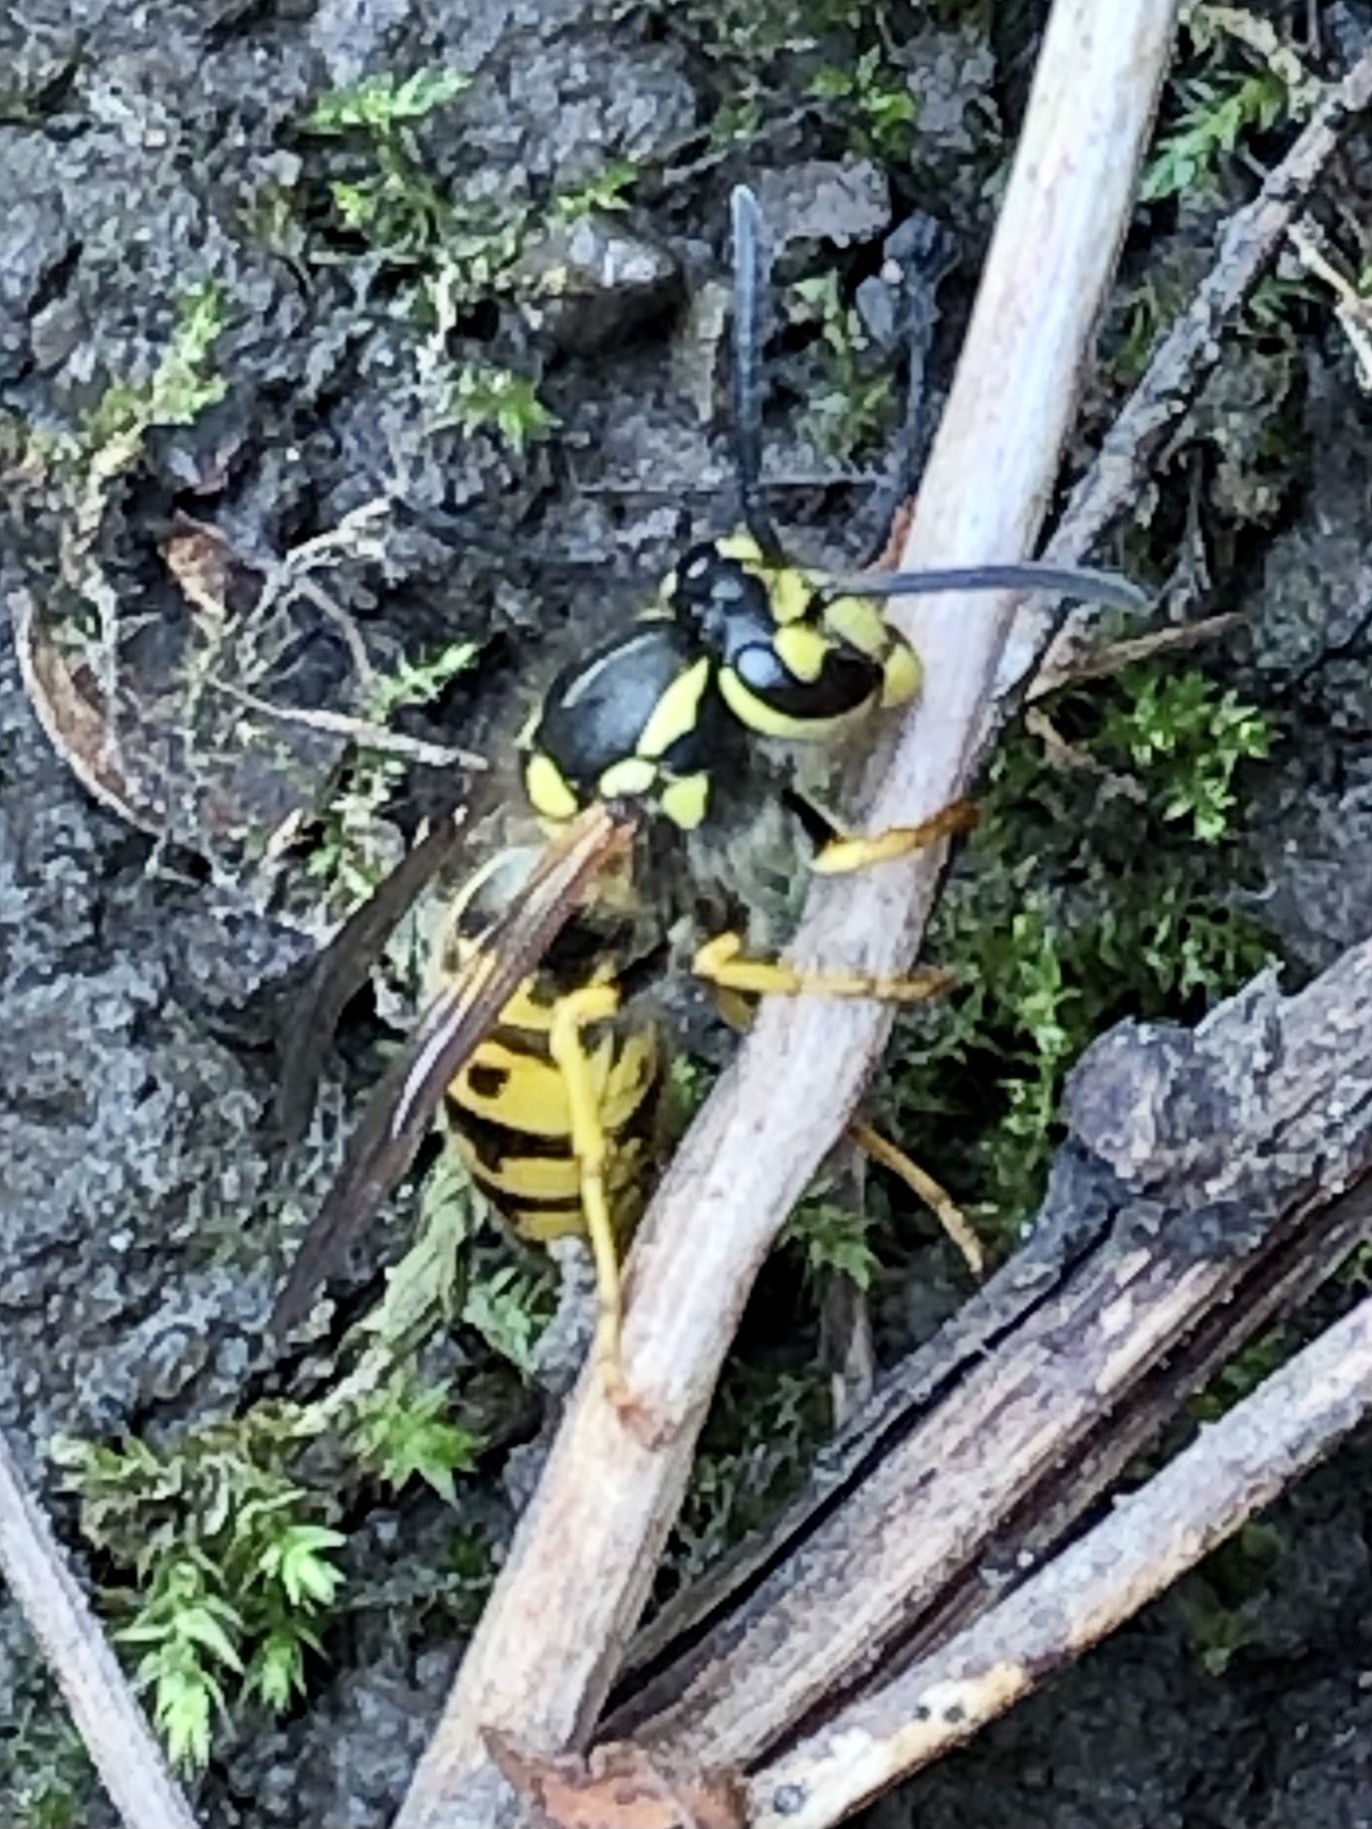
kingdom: Animalia
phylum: Arthropoda
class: Insecta
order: Hymenoptera
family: Vespidae
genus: Vespula
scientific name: Vespula germanica
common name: German wasp
